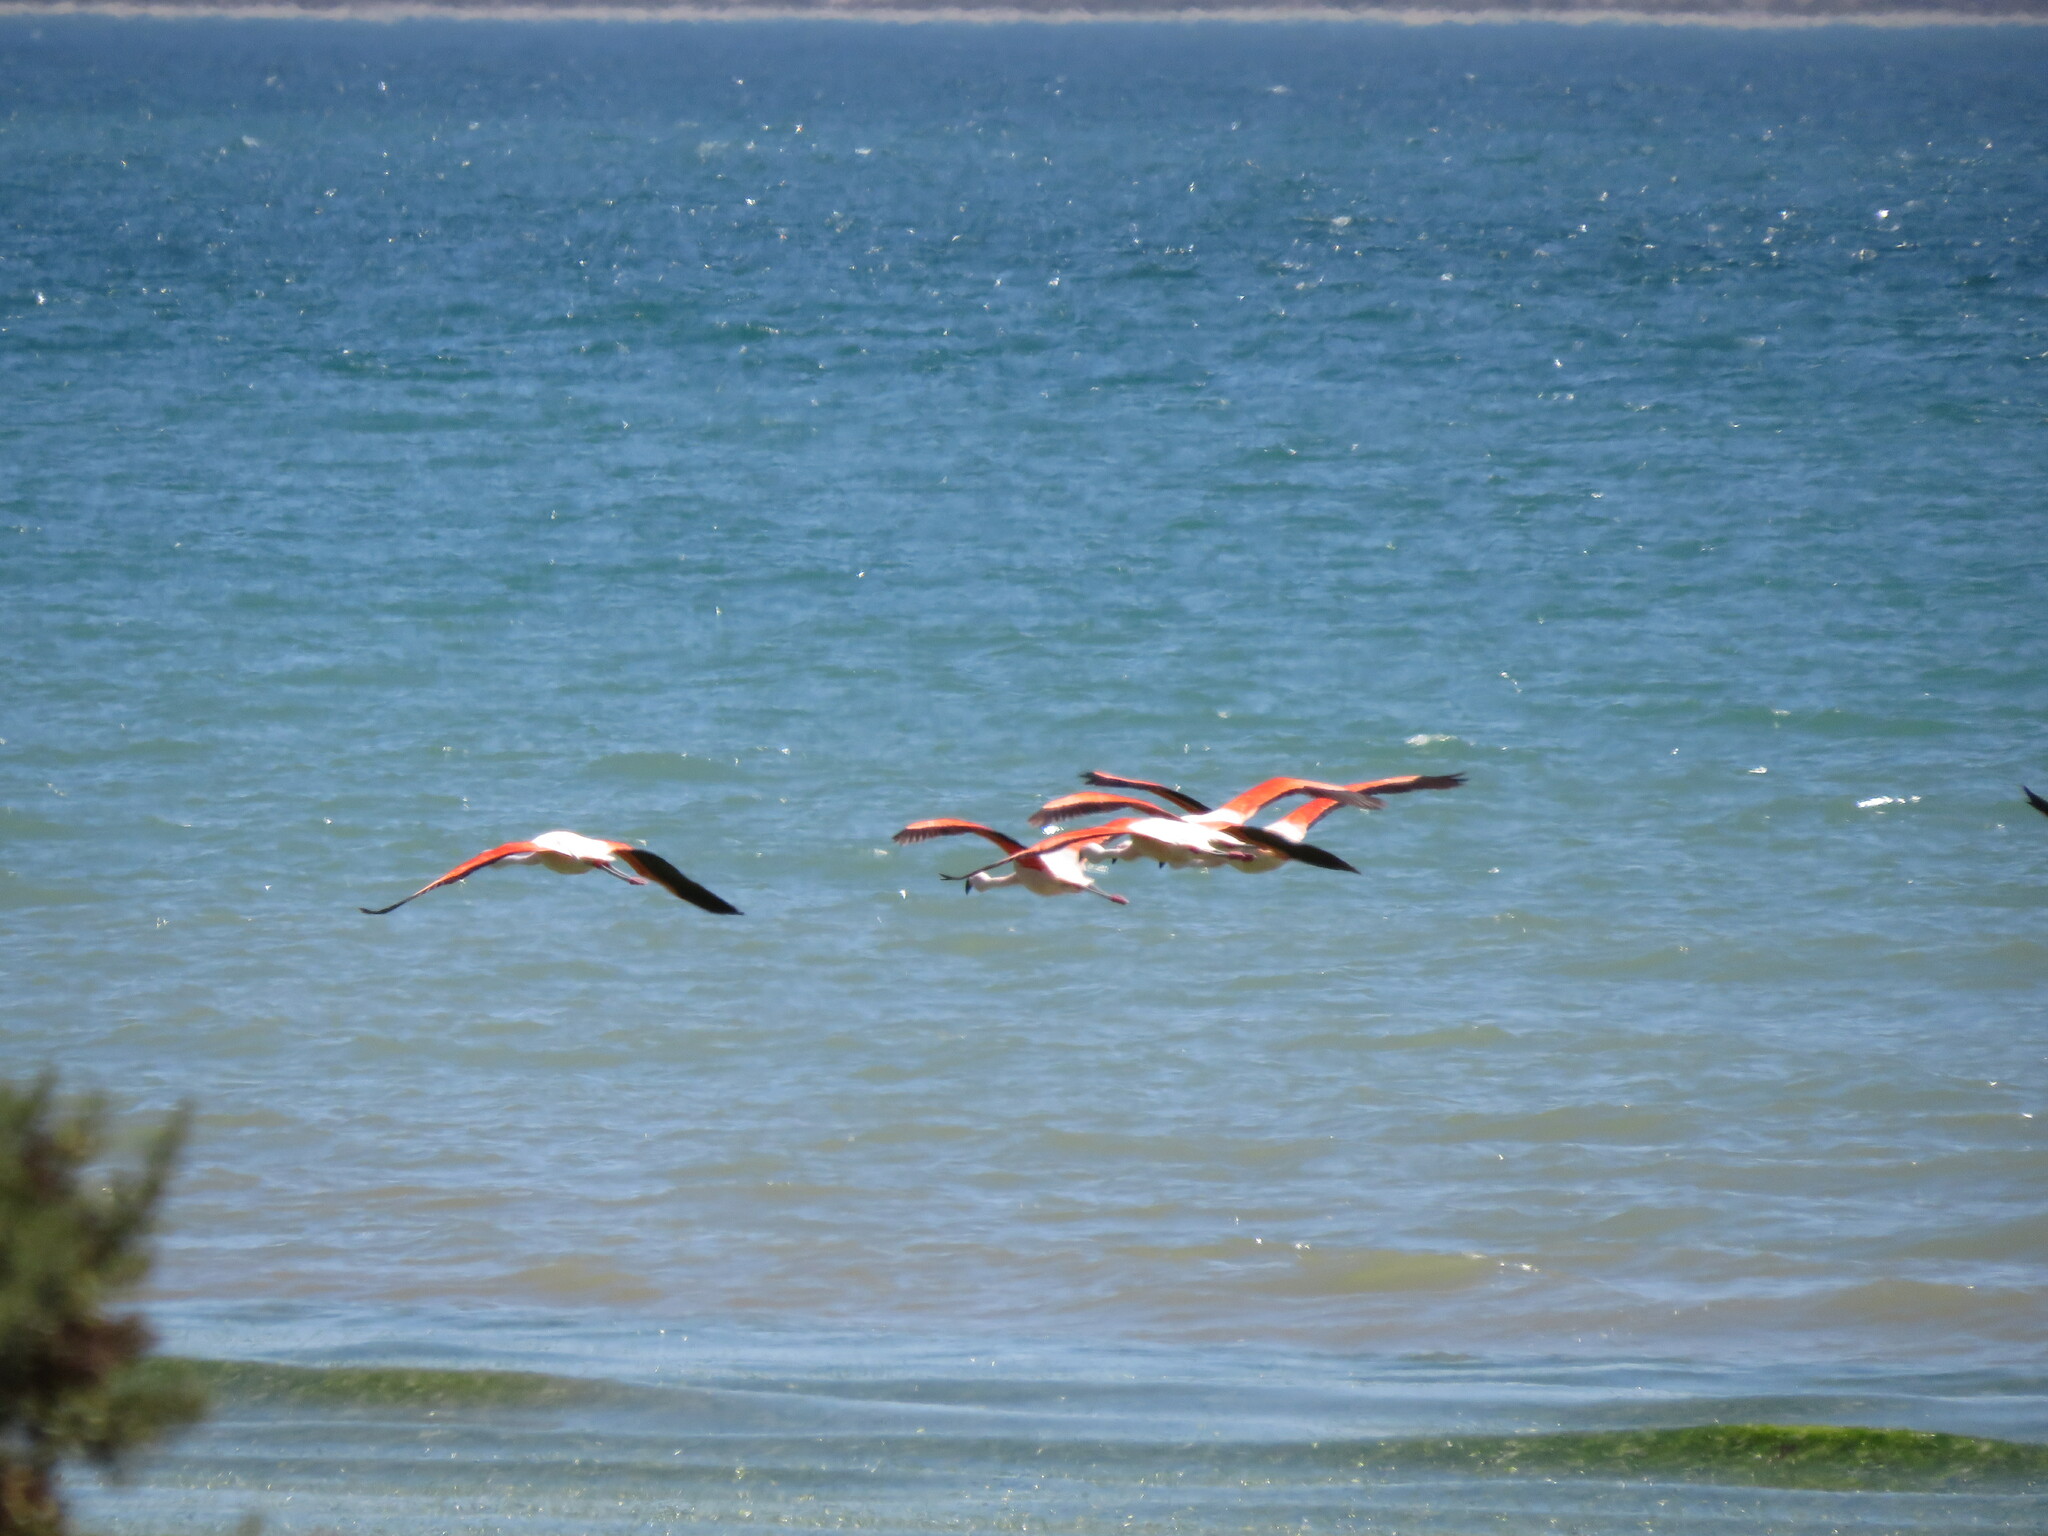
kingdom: Animalia
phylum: Chordata
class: Aves
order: Phoenicopteriformes
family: Phoenicopteridae
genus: Phoenicopterus
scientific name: Phoenicopterus chilensis
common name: Chilean flamingo
